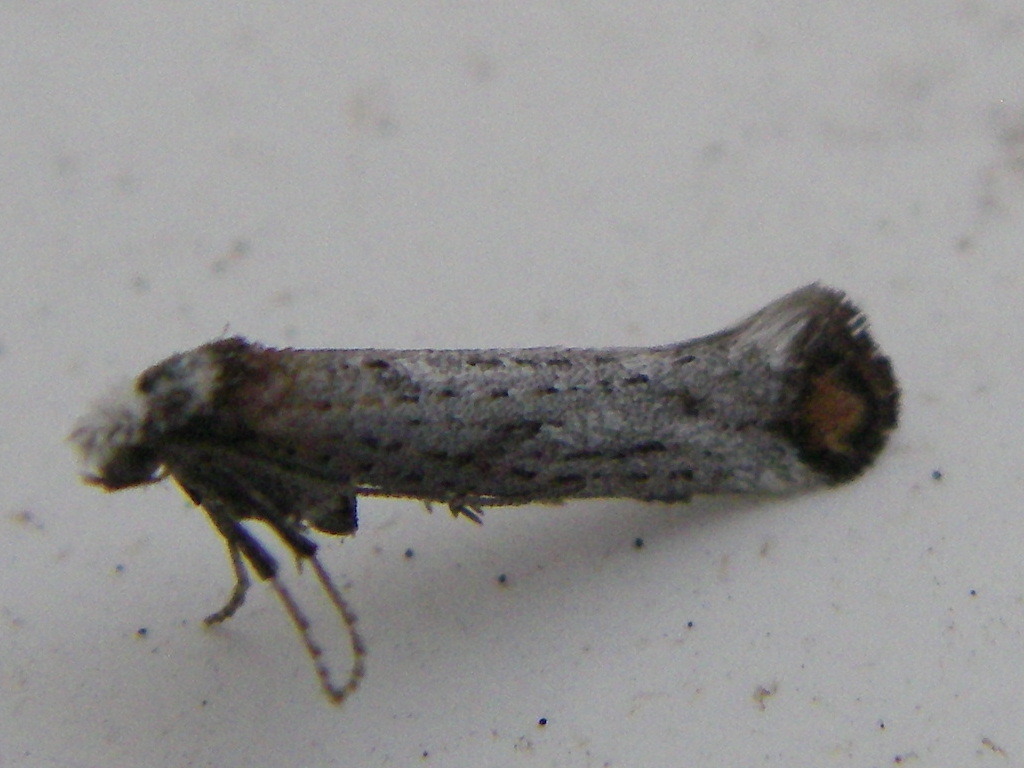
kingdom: Animalia
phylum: Arthropoda
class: Insecta
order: Lepidoptera
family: Yponomeutidae
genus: Pseudoswammerdamia
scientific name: Pseudoswammerdamia combinella
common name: Copper-tipped ermine
